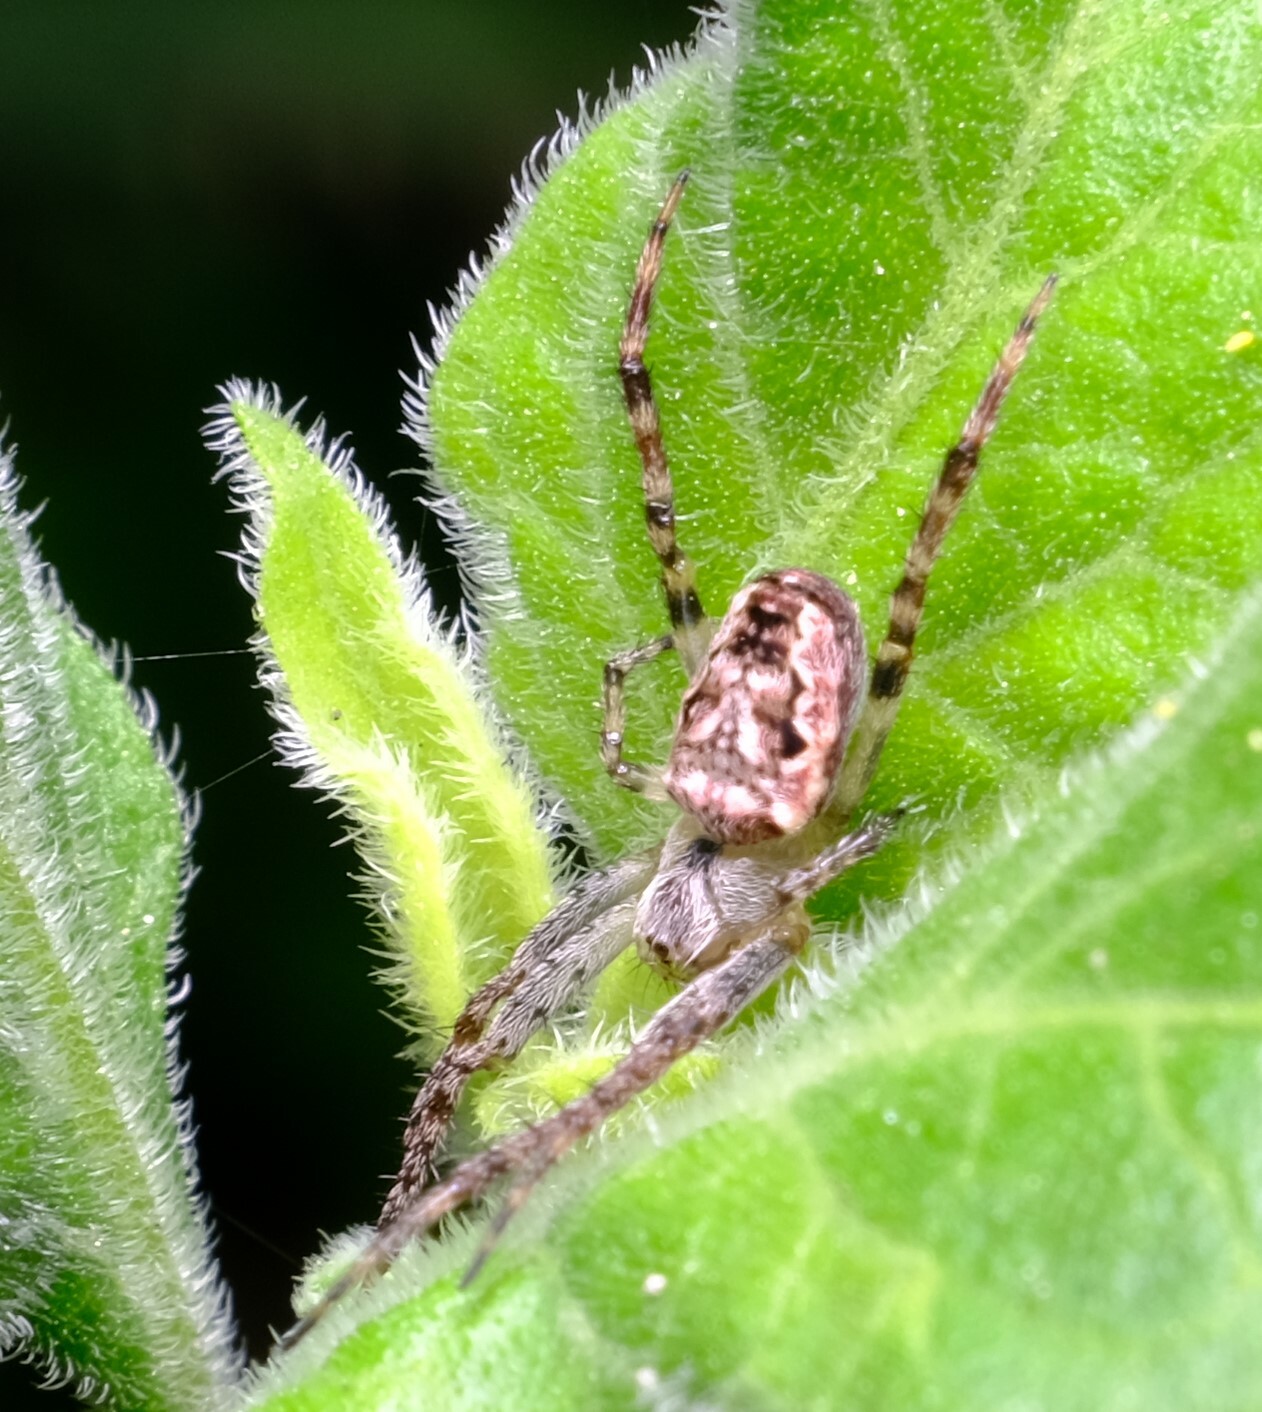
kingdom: Animalia
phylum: Arthropoda
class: Arachnida
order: Araneae
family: Araneidae
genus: Plebs
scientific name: Plebs eburnus
